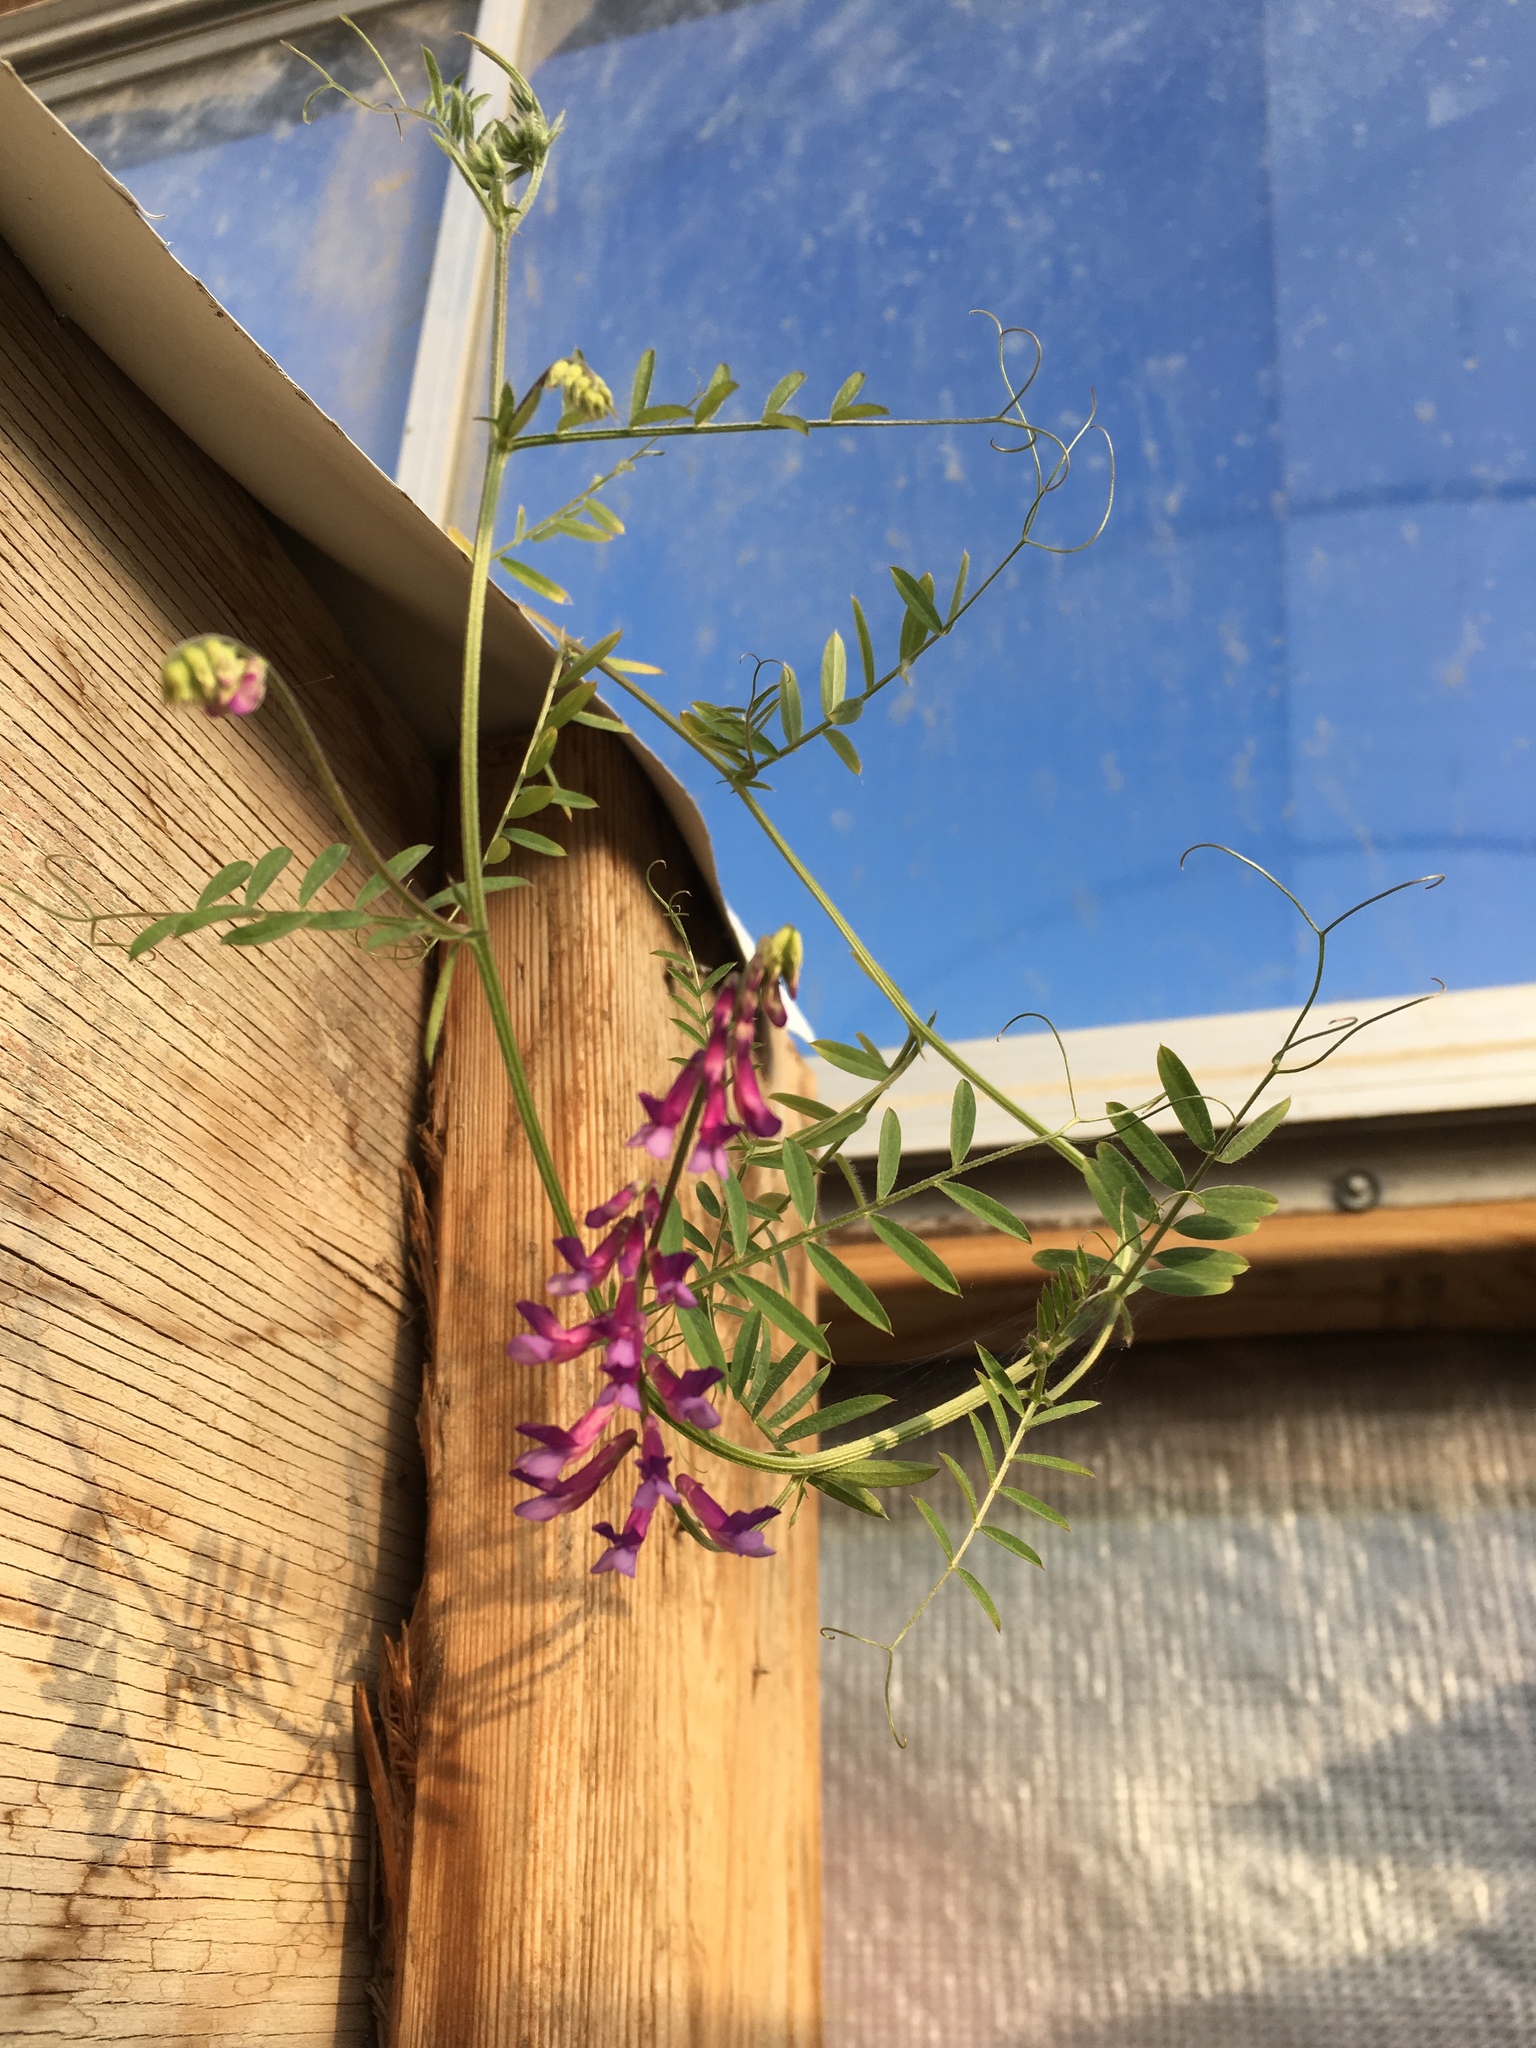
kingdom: Plantae
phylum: Tracheophyta
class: Magnoliopsida
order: Fabales
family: Fabaceae
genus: Vicia
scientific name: Vicia villosa
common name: Fodder vetch
